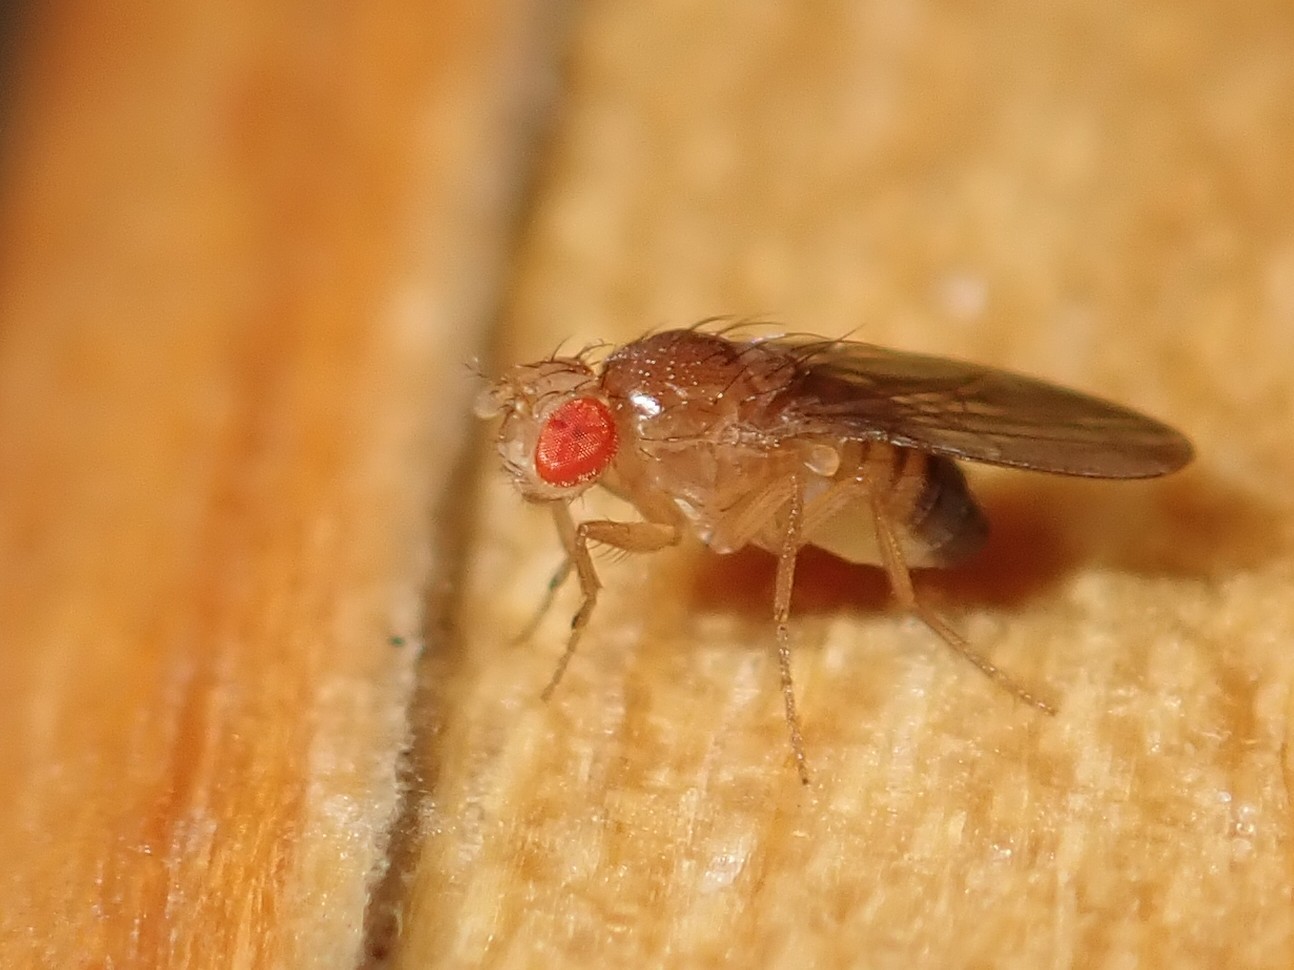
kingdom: Animalia
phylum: Arthropoda
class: Insecta
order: Diptera
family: Drosophilidae
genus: Drosophila
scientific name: Drosophila melanogaster
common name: Pomace fly
